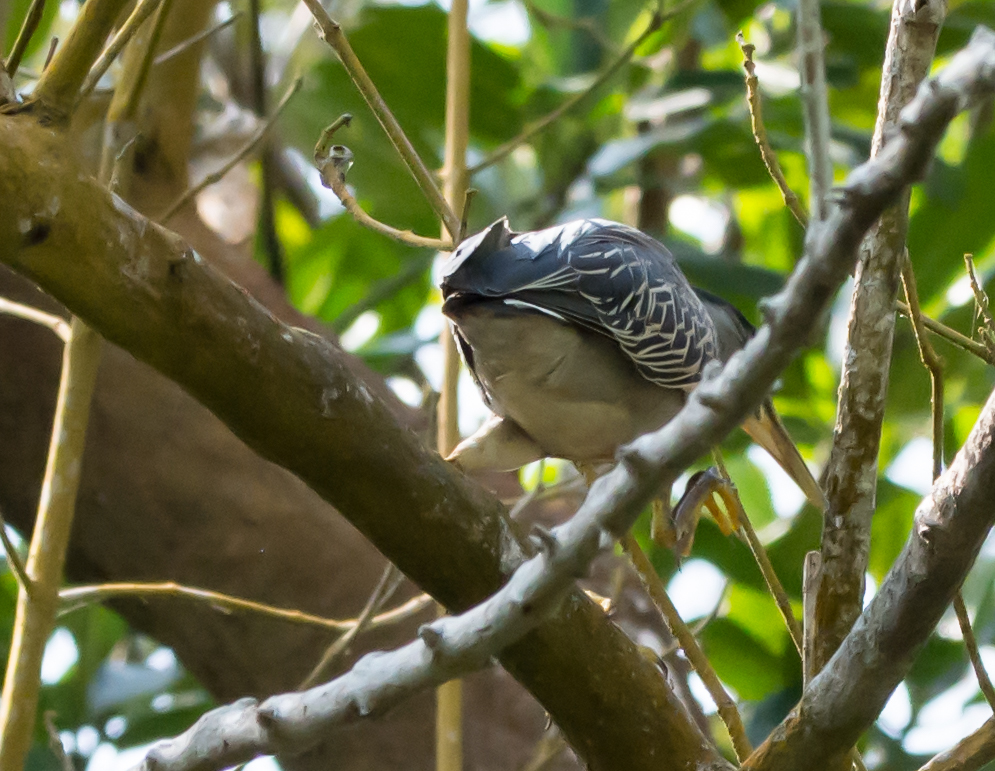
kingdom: Animalia
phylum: Chordata
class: Aves
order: Pelecaniformes
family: Ardeidae
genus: Butorides
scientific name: Butorides striata
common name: Striated heron
